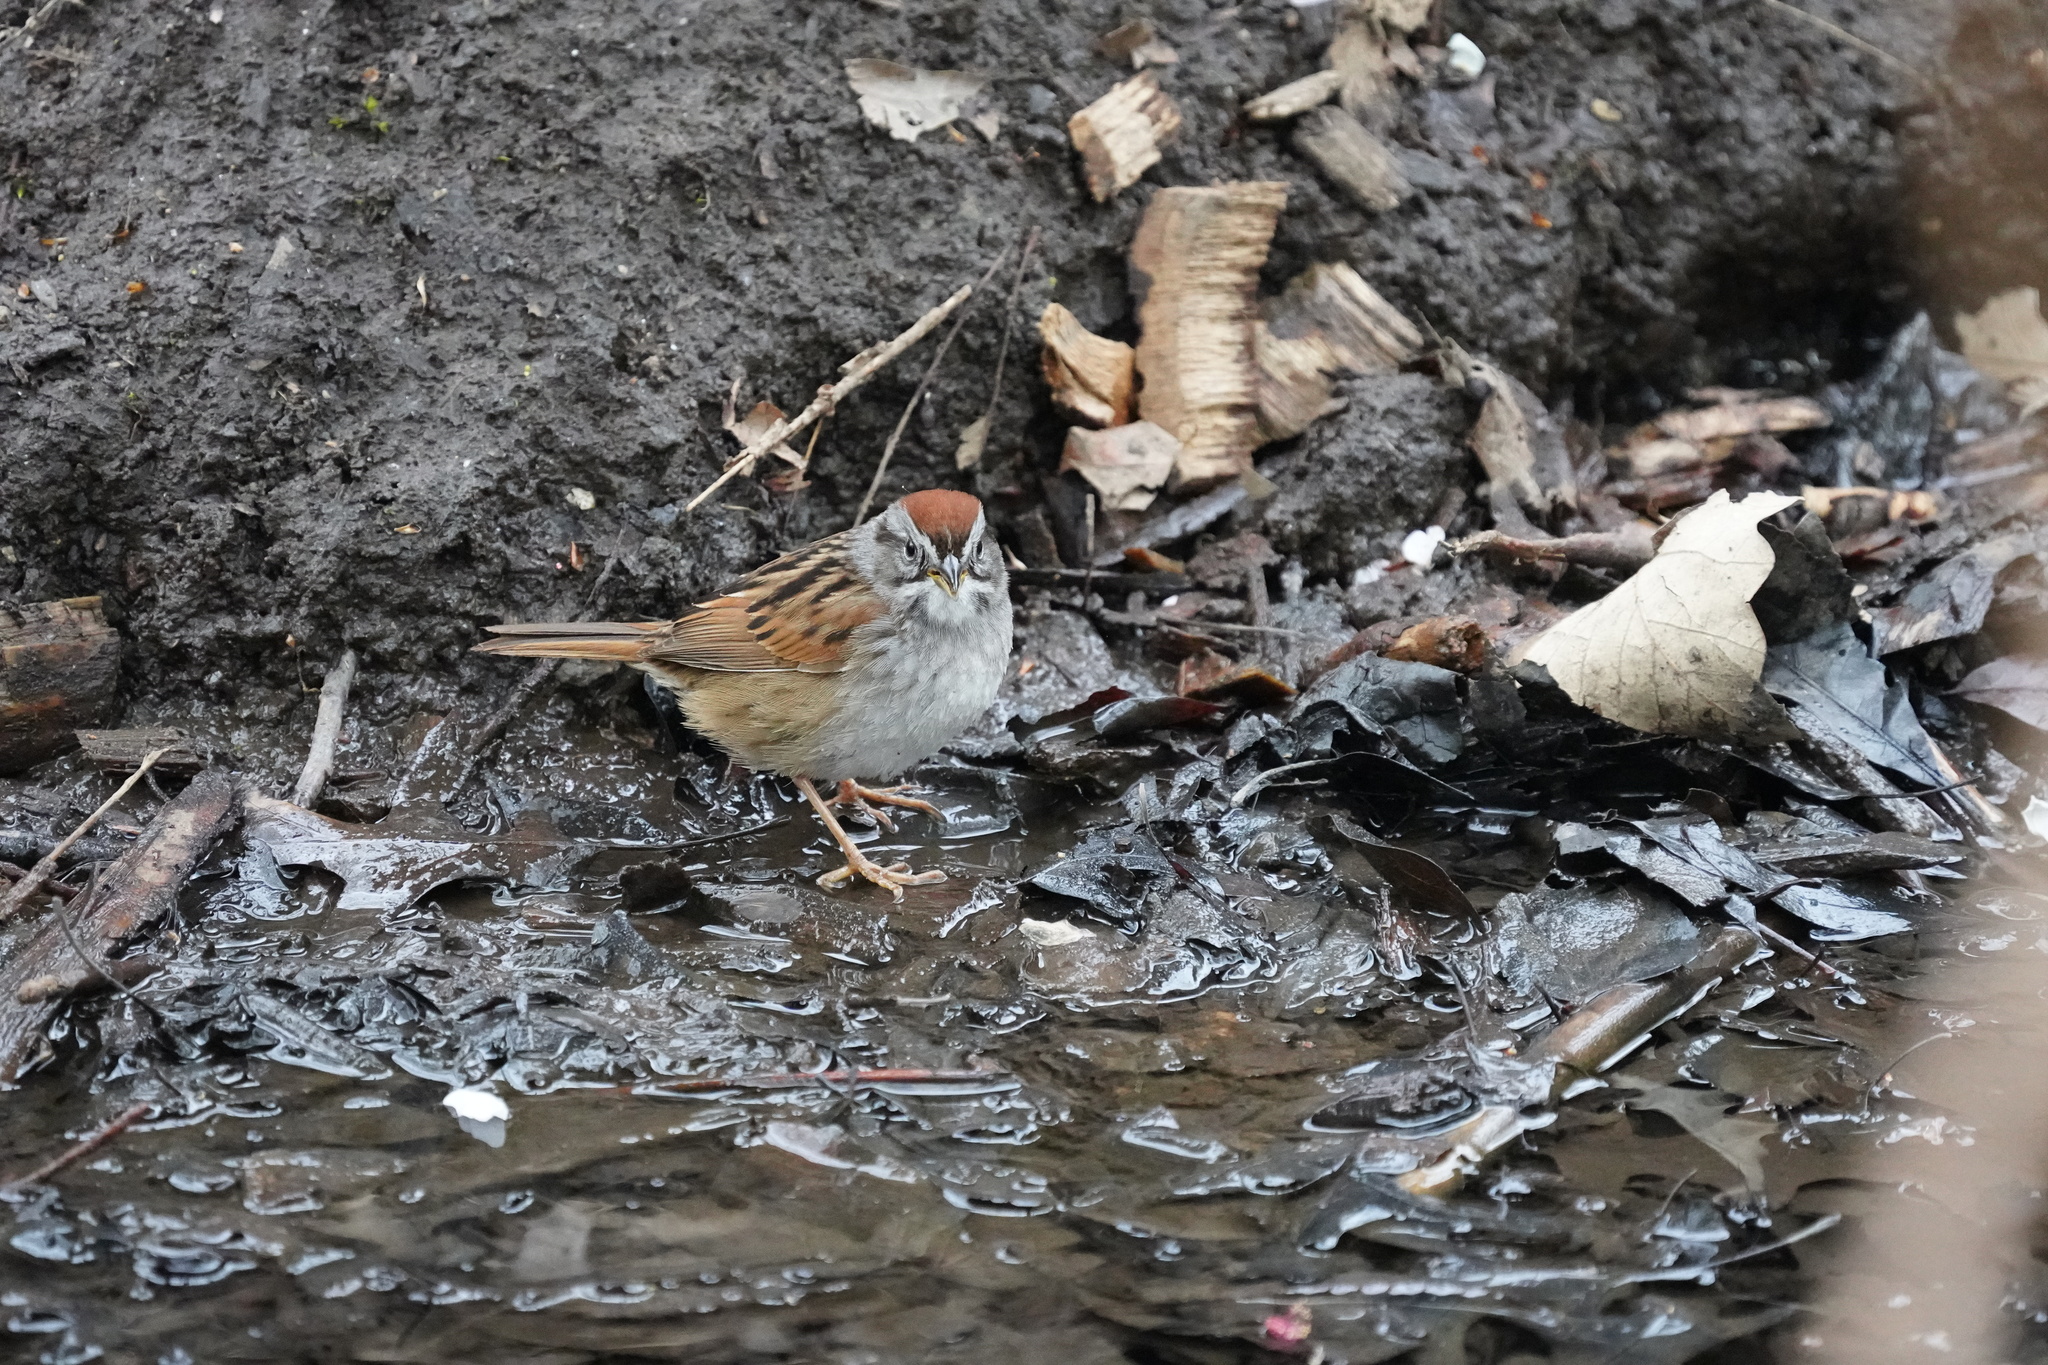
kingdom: Animalia
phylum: Chordata
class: Aves
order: Passeriformes
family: Passerellidae
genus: Melospiza
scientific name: Melospiza georgiana
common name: Swamp sparrow
